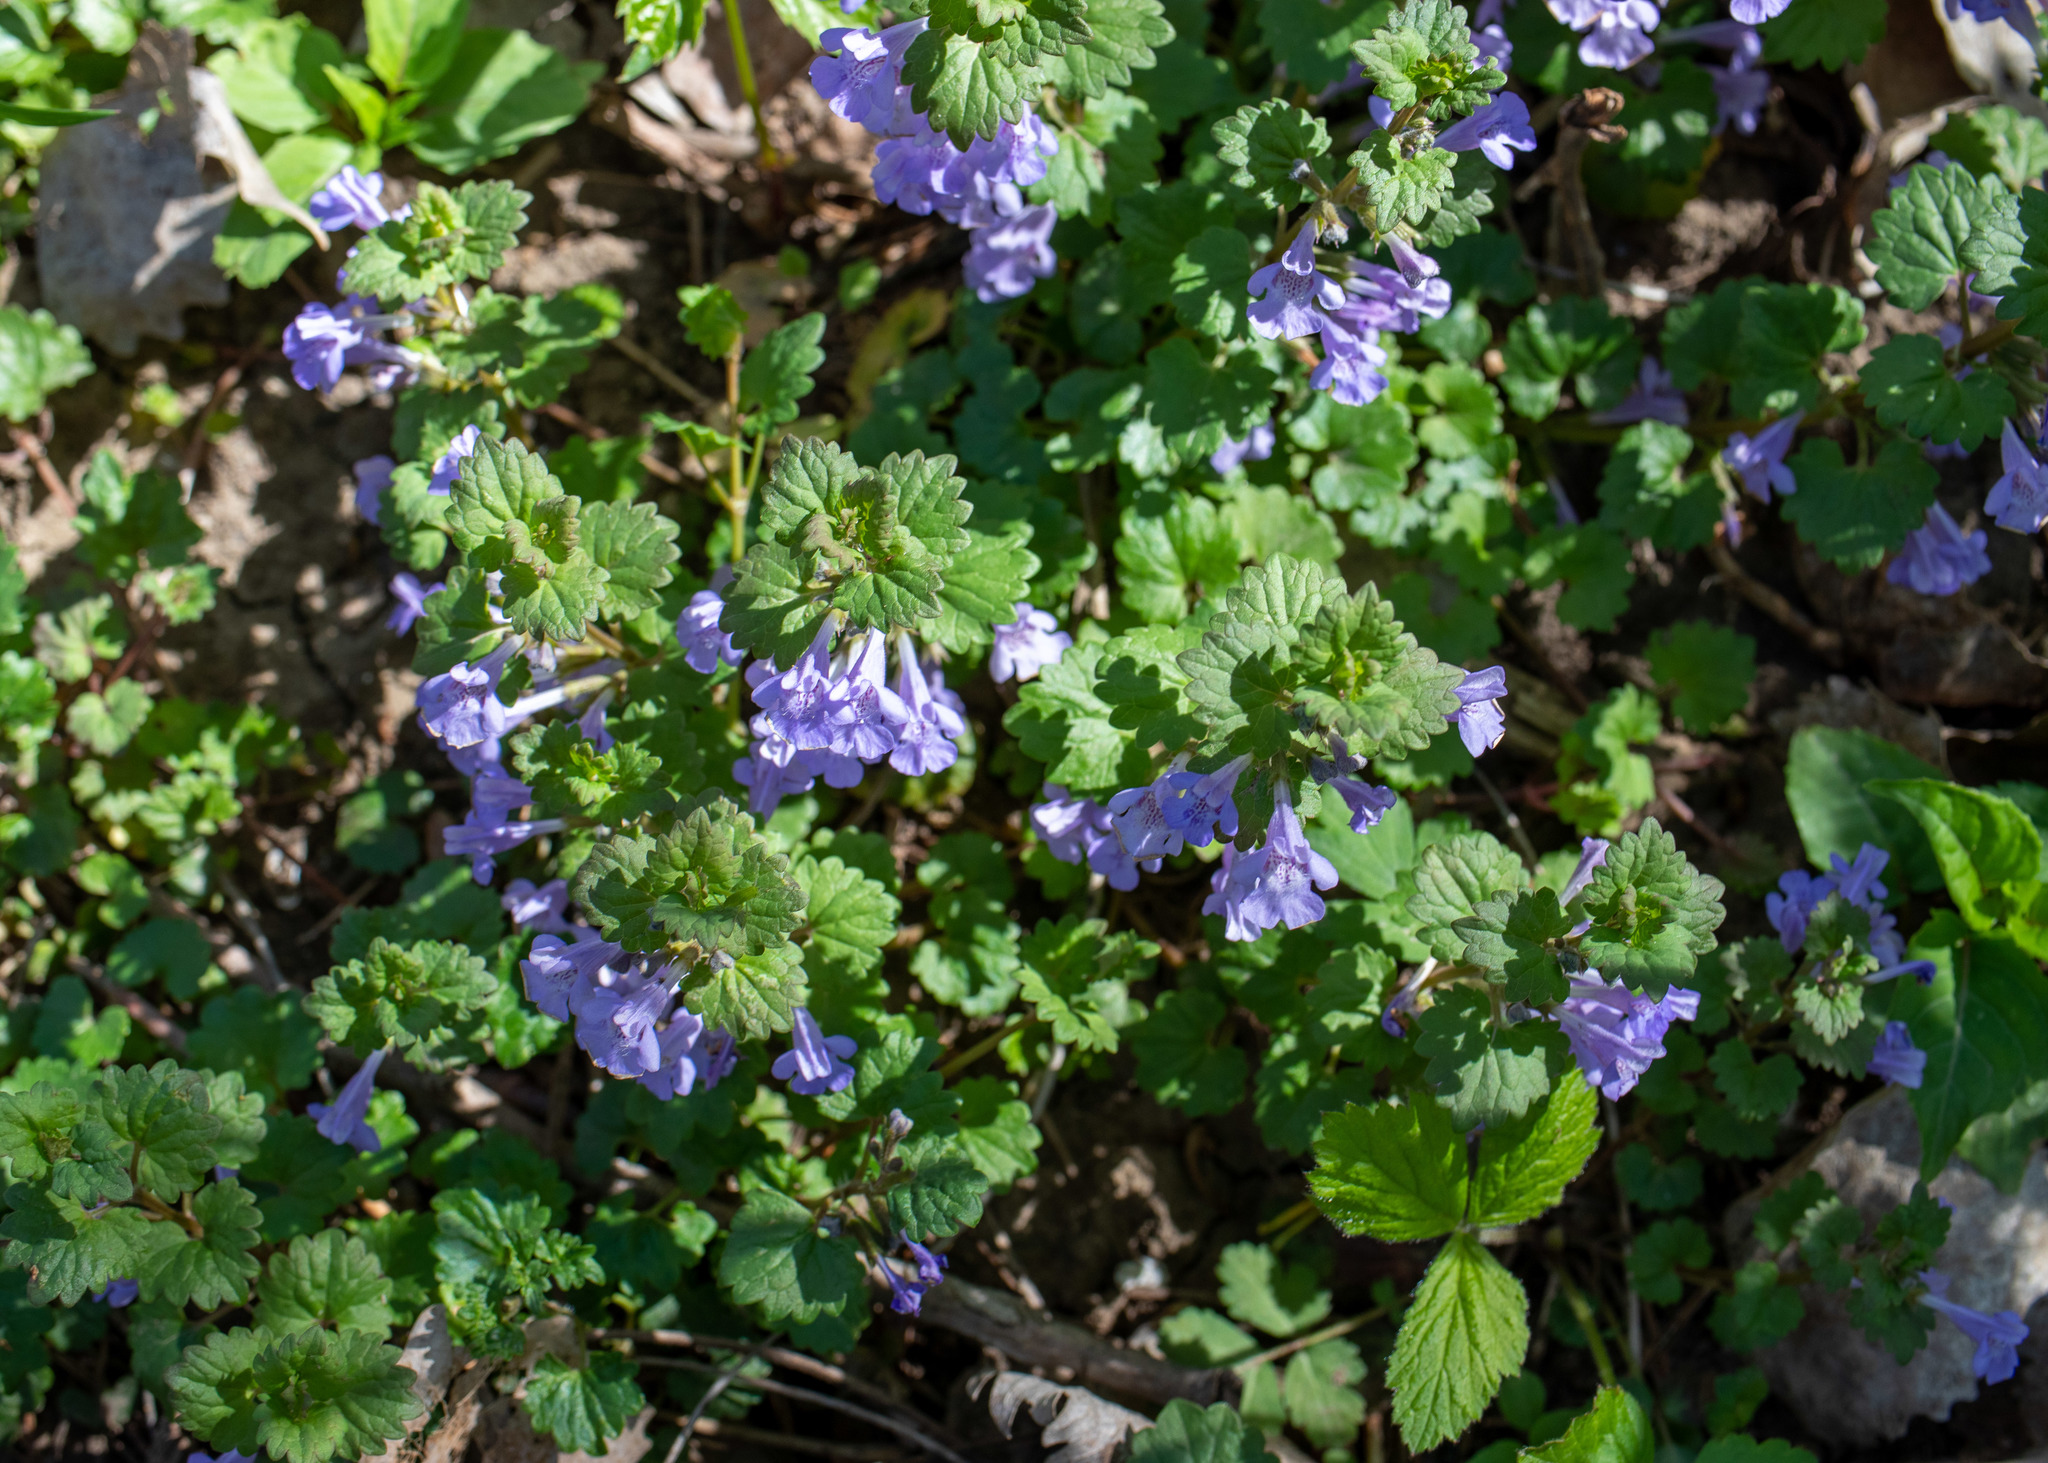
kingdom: Plantae
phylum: Tracheophyta
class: Magnoliopsida
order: Lamiales
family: Lamiaceae
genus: Glechoma
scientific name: Glechoma hederacea
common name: Ground ivy
